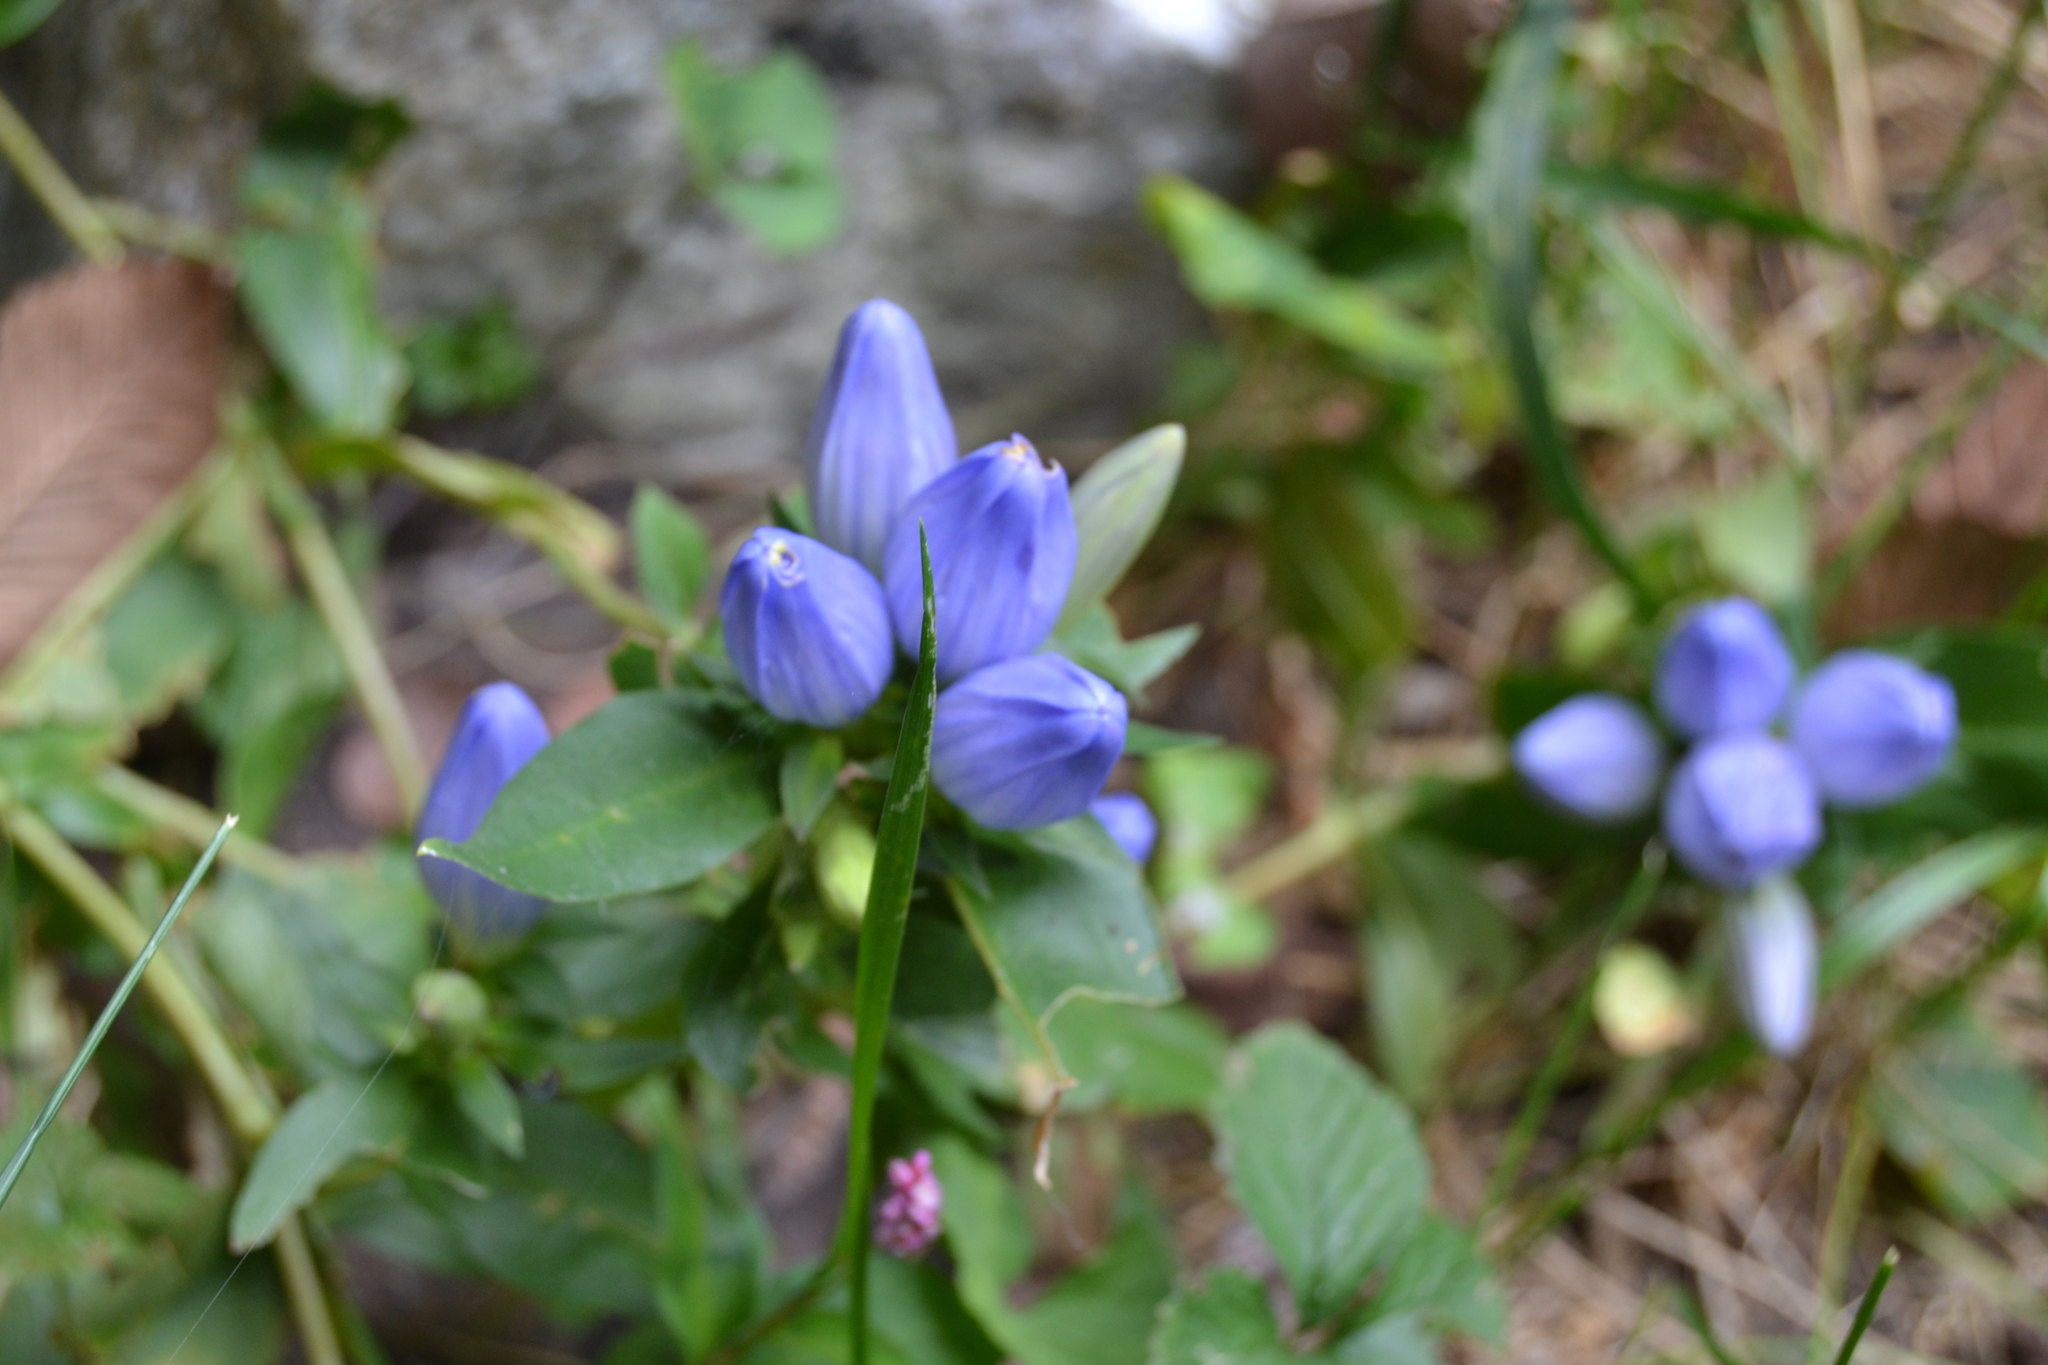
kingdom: Plantae
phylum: Tracheophyta
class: Magnoliopsida
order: Gentianales
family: Gentianaceae
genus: Gentiana
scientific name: Gentiana andrewsii
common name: Bottle gentian
